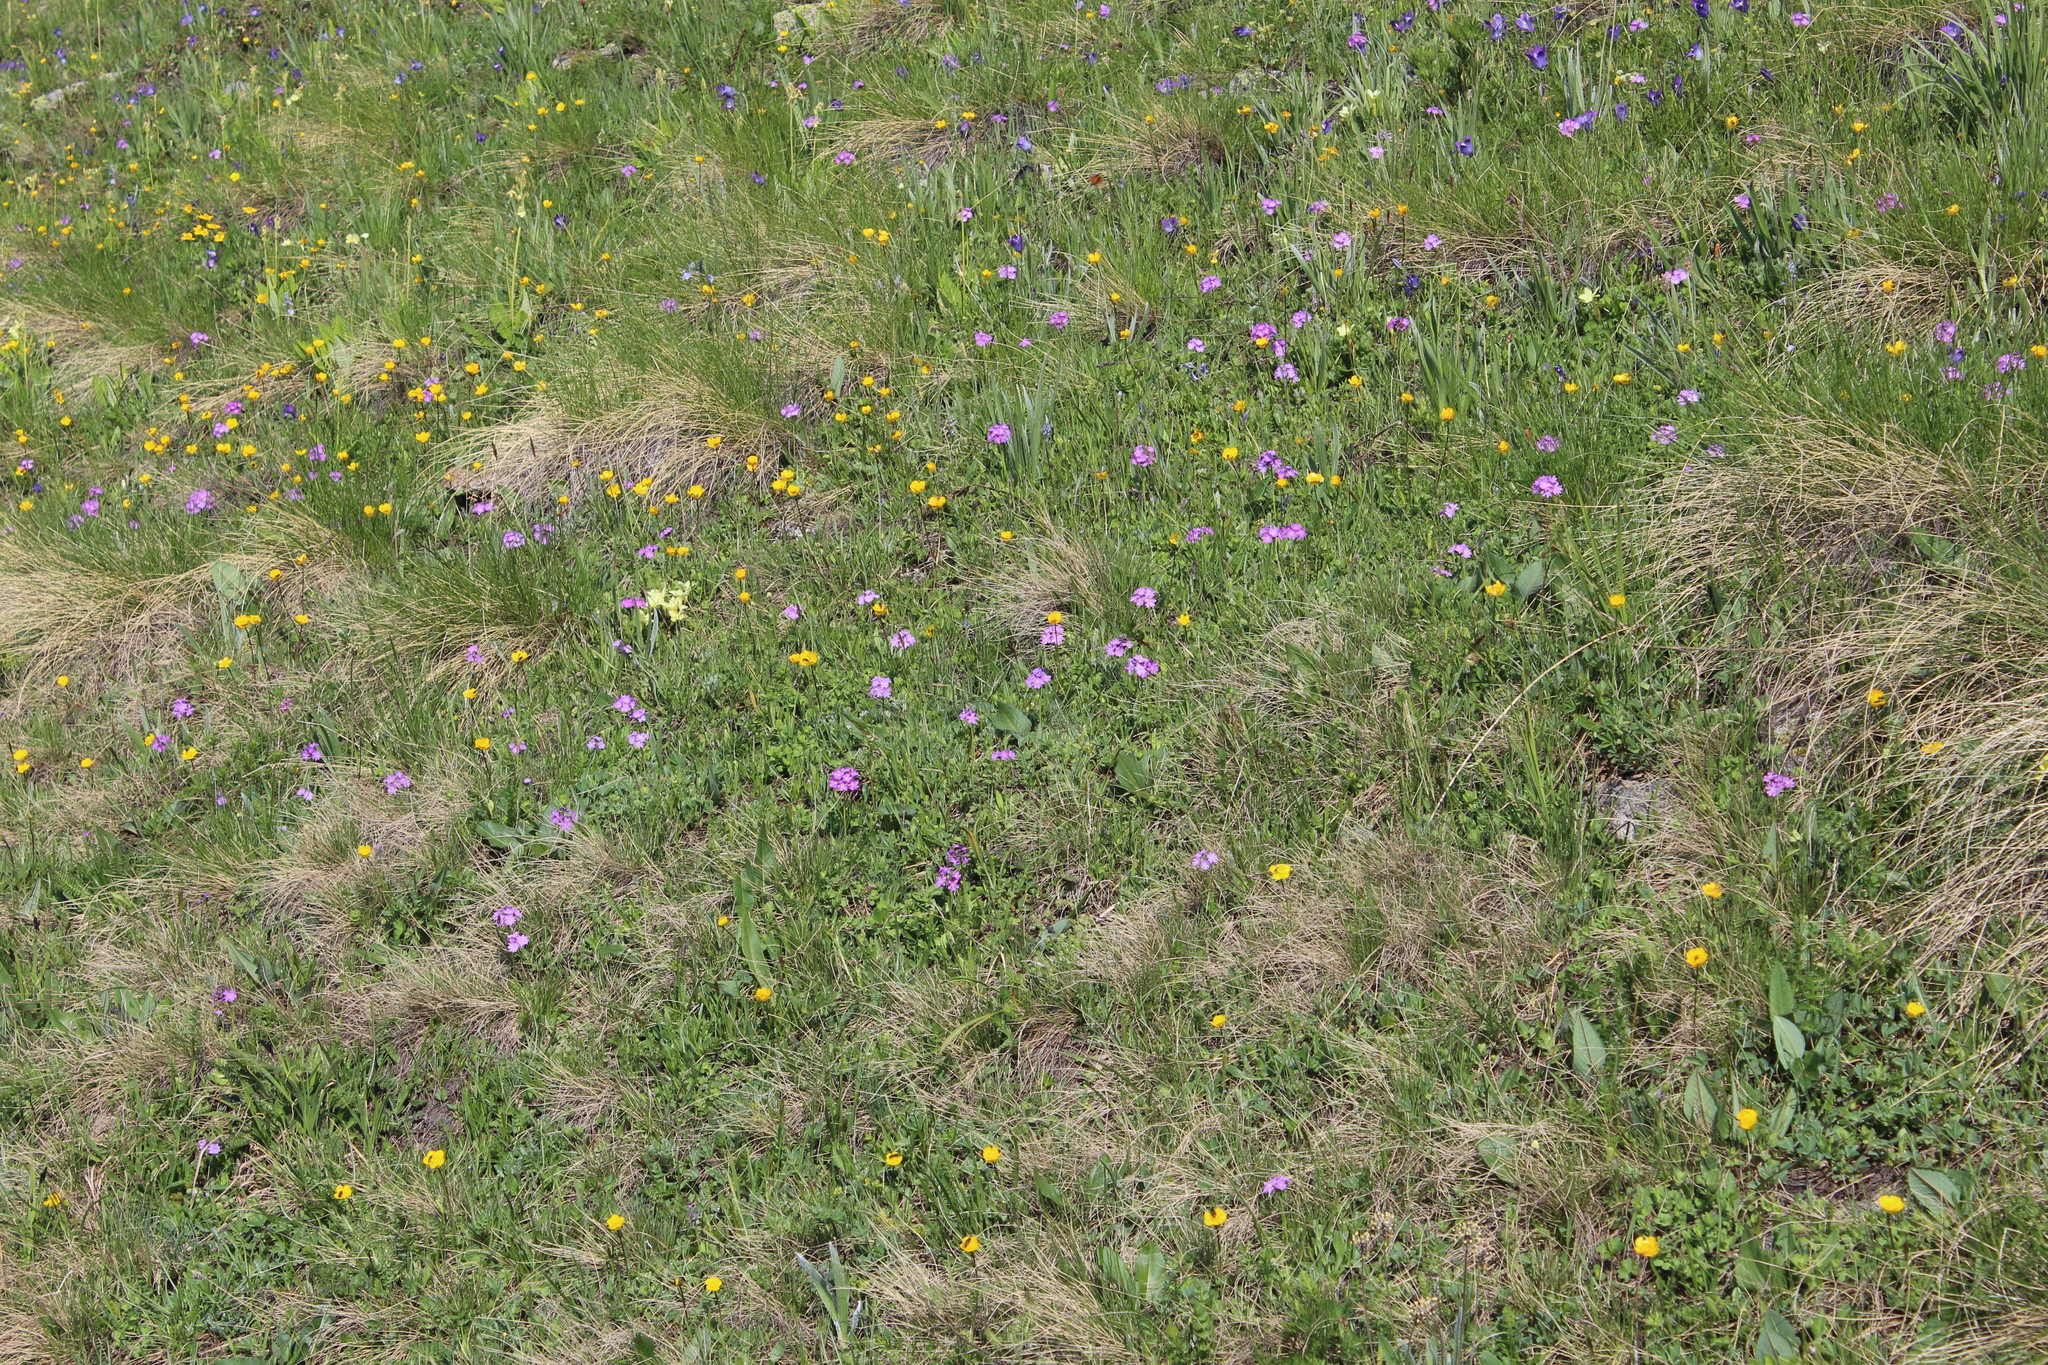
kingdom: Plantae
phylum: Tracheophyta
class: Magnoliopsida
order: Ericales
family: Primulaceae
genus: Primula
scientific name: Primula algida
